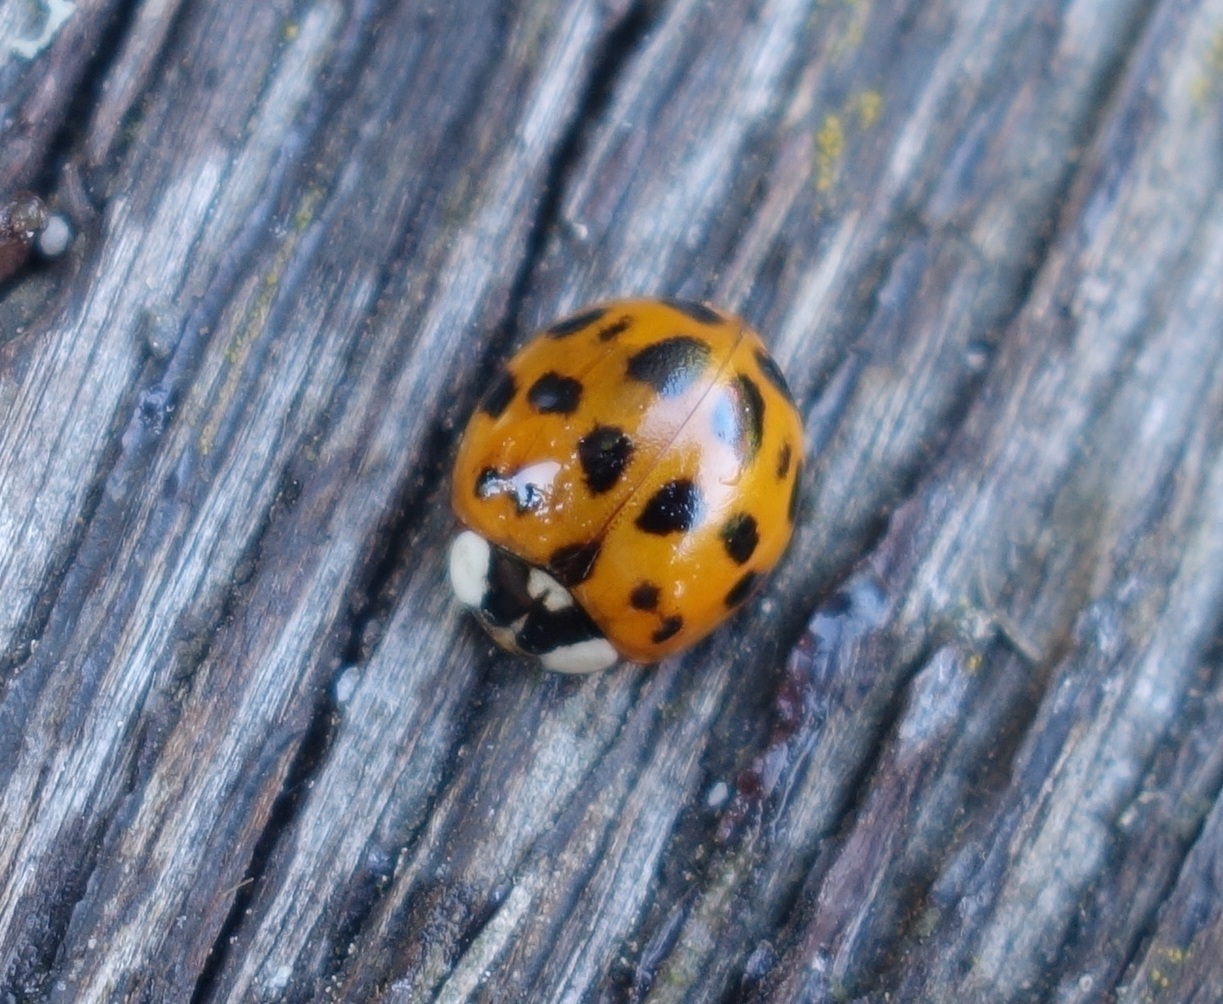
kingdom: Animalia
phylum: Arthropoda
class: Insecta
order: Coleoptera
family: Coccinellidae
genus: Harmonia
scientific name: Harmonia axyridis
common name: Harlequin ladybird
